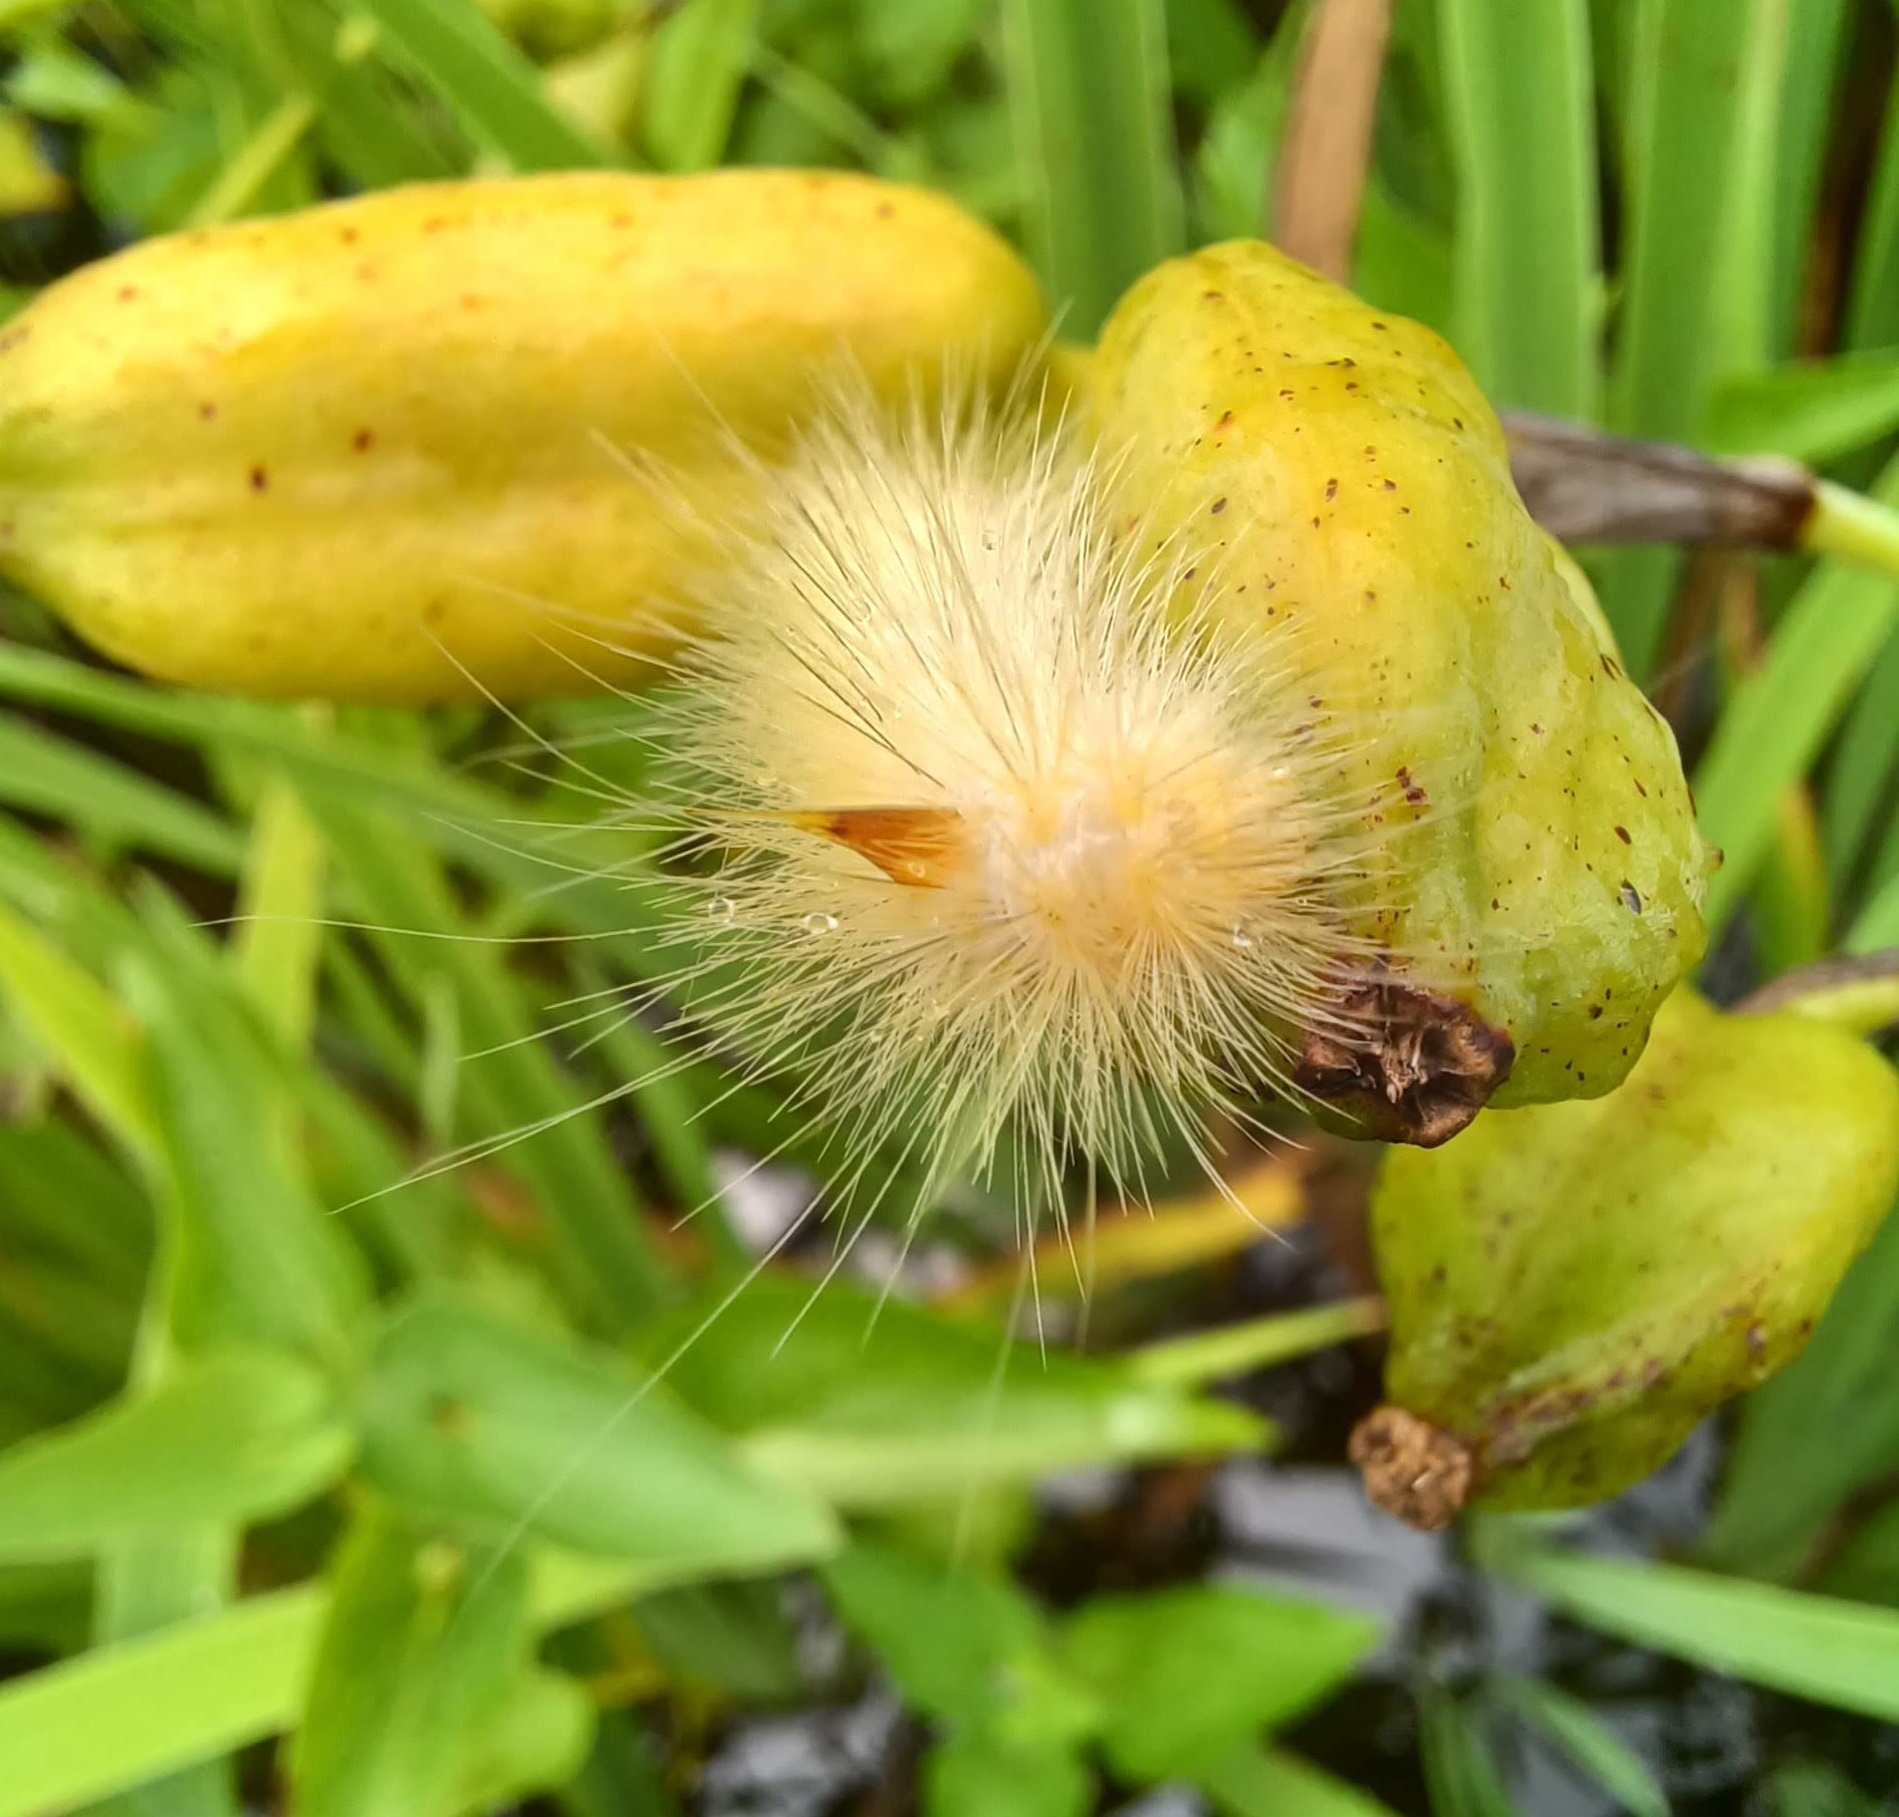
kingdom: Animalia
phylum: Arthropoda
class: Insecta
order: Lepidoptera
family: Erebidae
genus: Spilosoma
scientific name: Spilosoma virginica
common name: Virginia tiger moth
